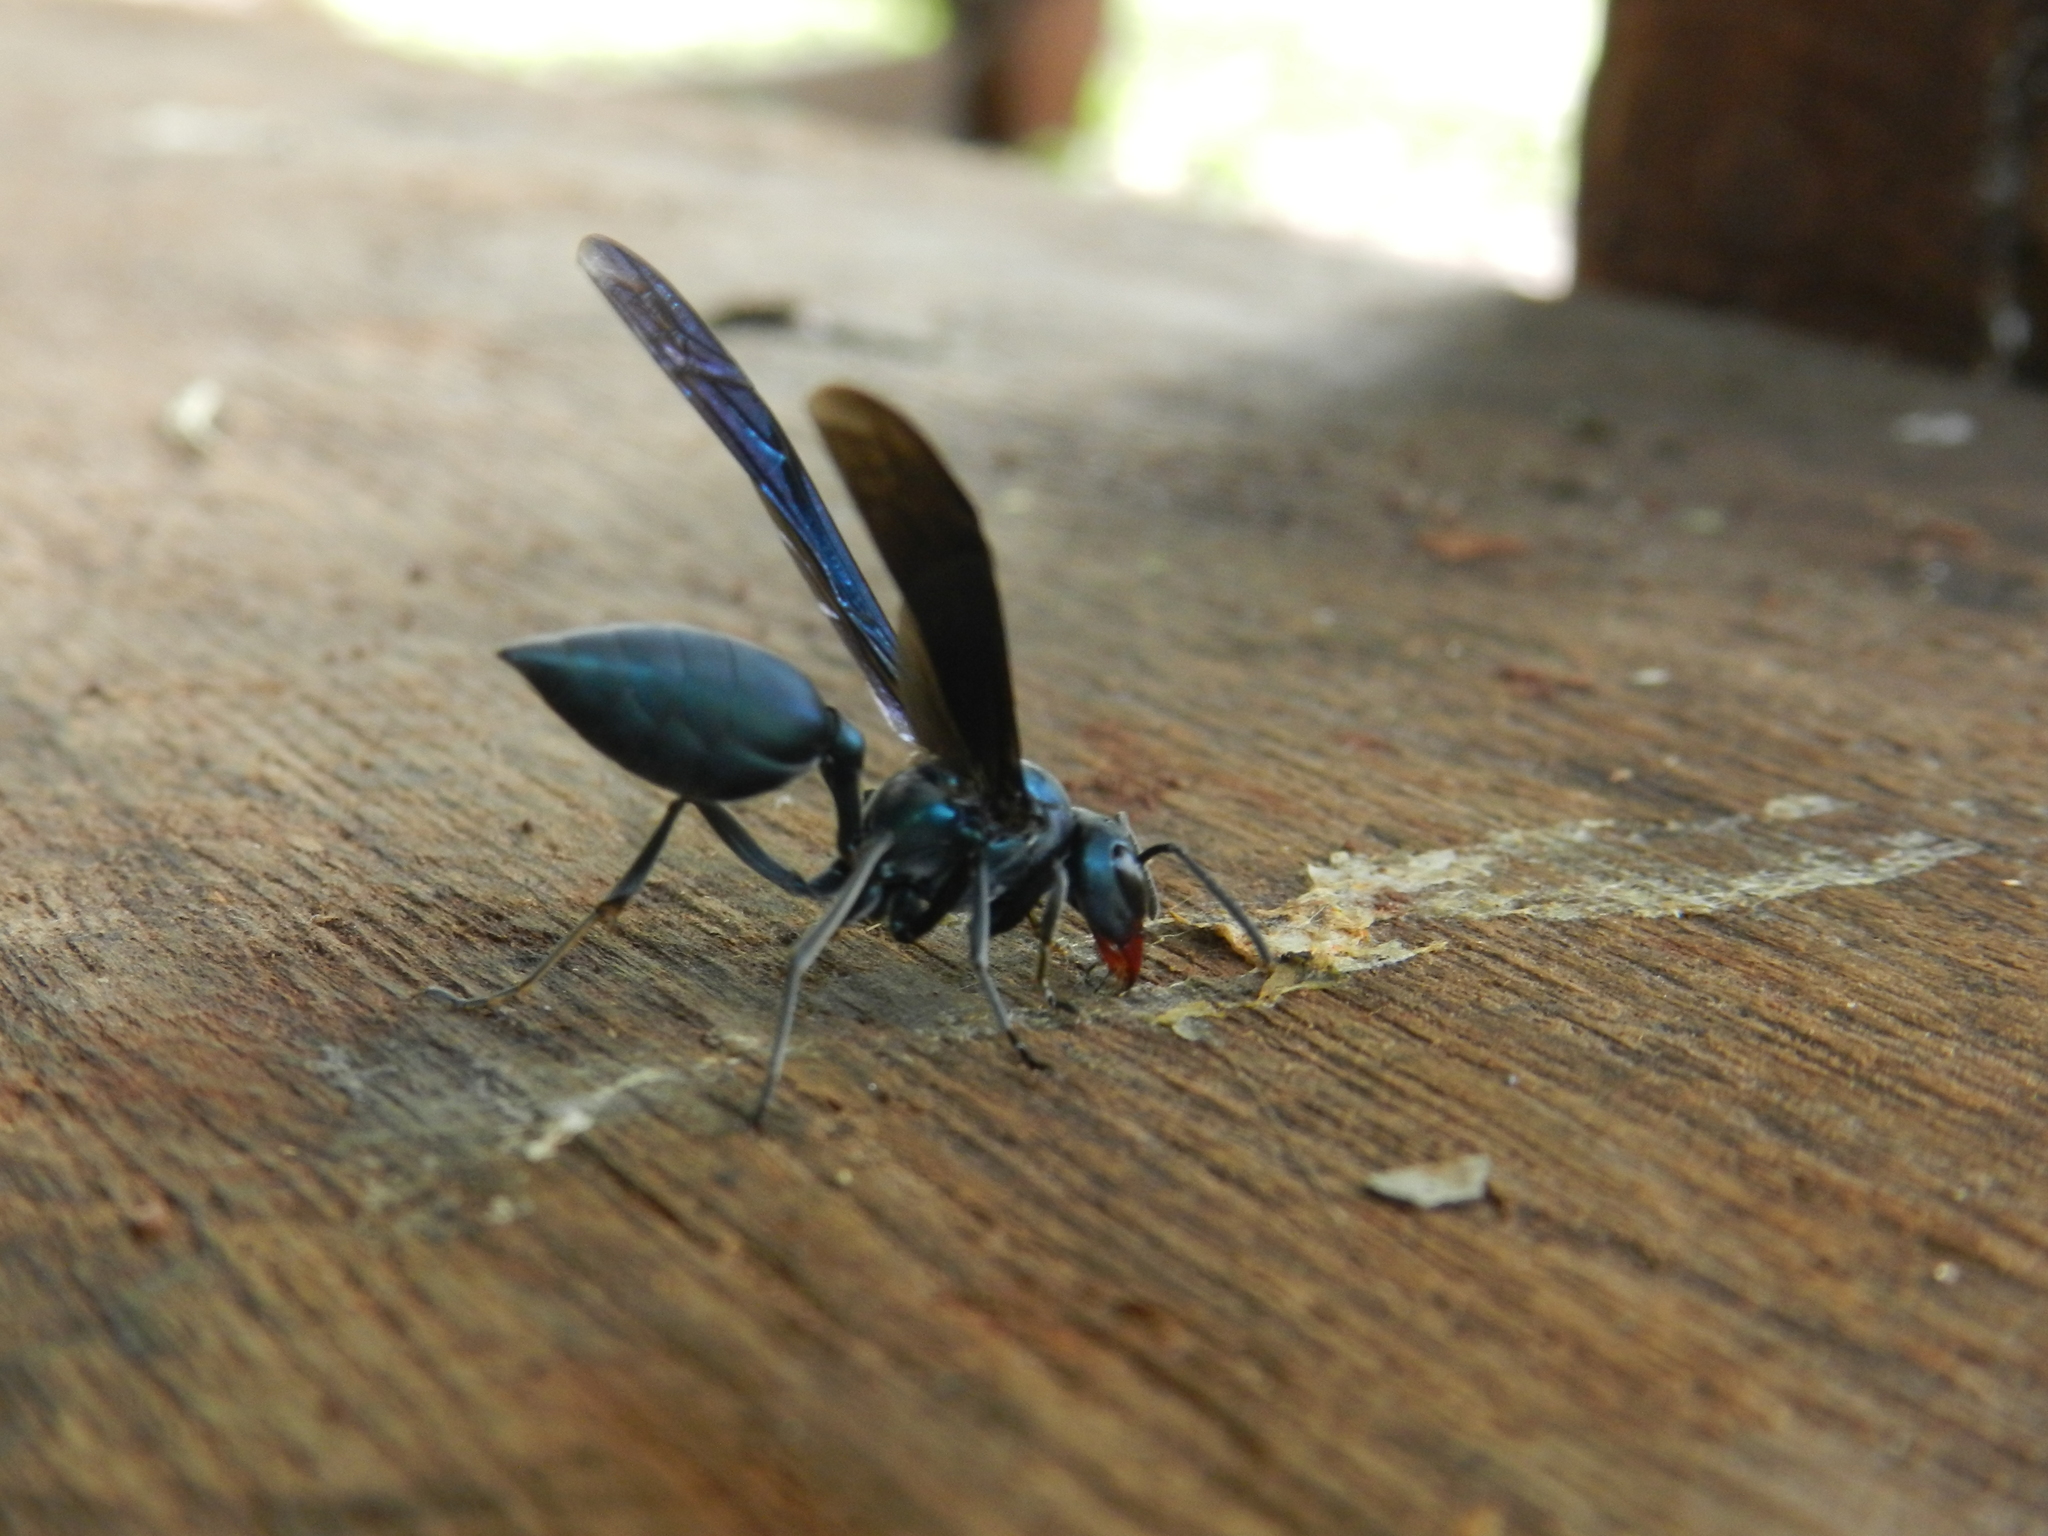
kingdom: Animalia
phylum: Arthropoda
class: Insecta
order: Hymenoptera
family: Vespidae
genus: Synoeca
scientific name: Synoeca cyanea
